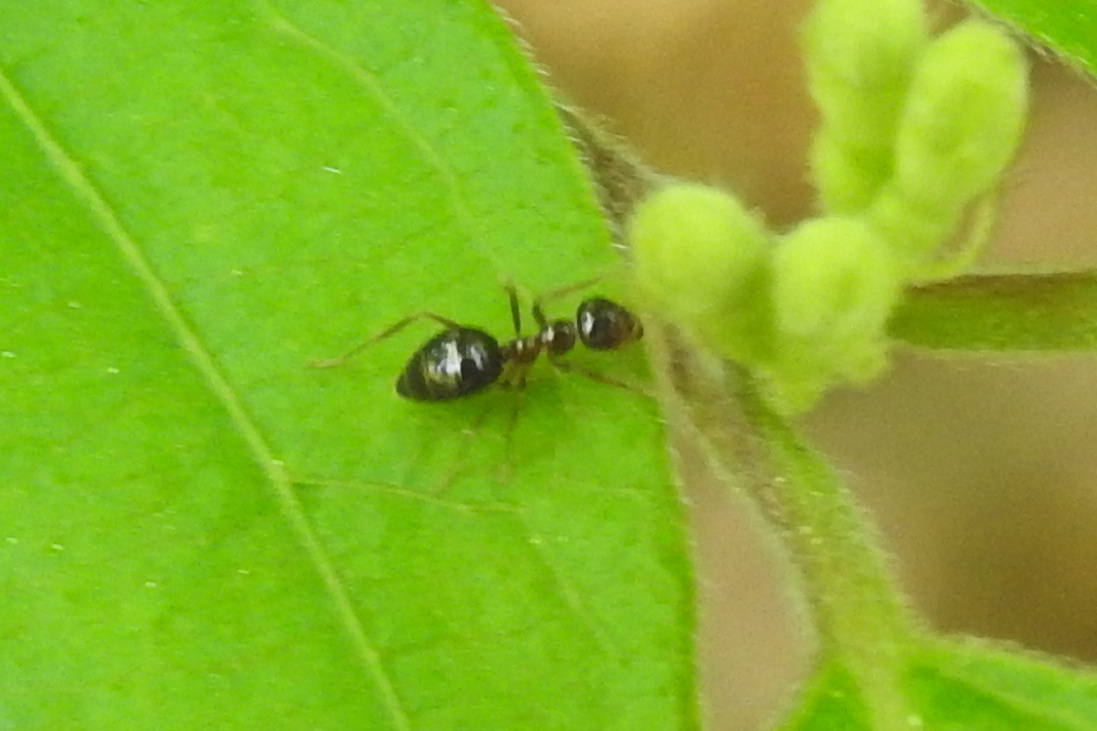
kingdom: Animalia
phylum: Arthropoda
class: Insecta
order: Hymenoptera
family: Formicidae
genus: Prenolepis
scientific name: Prenolepis imparis
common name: Small honey ant
